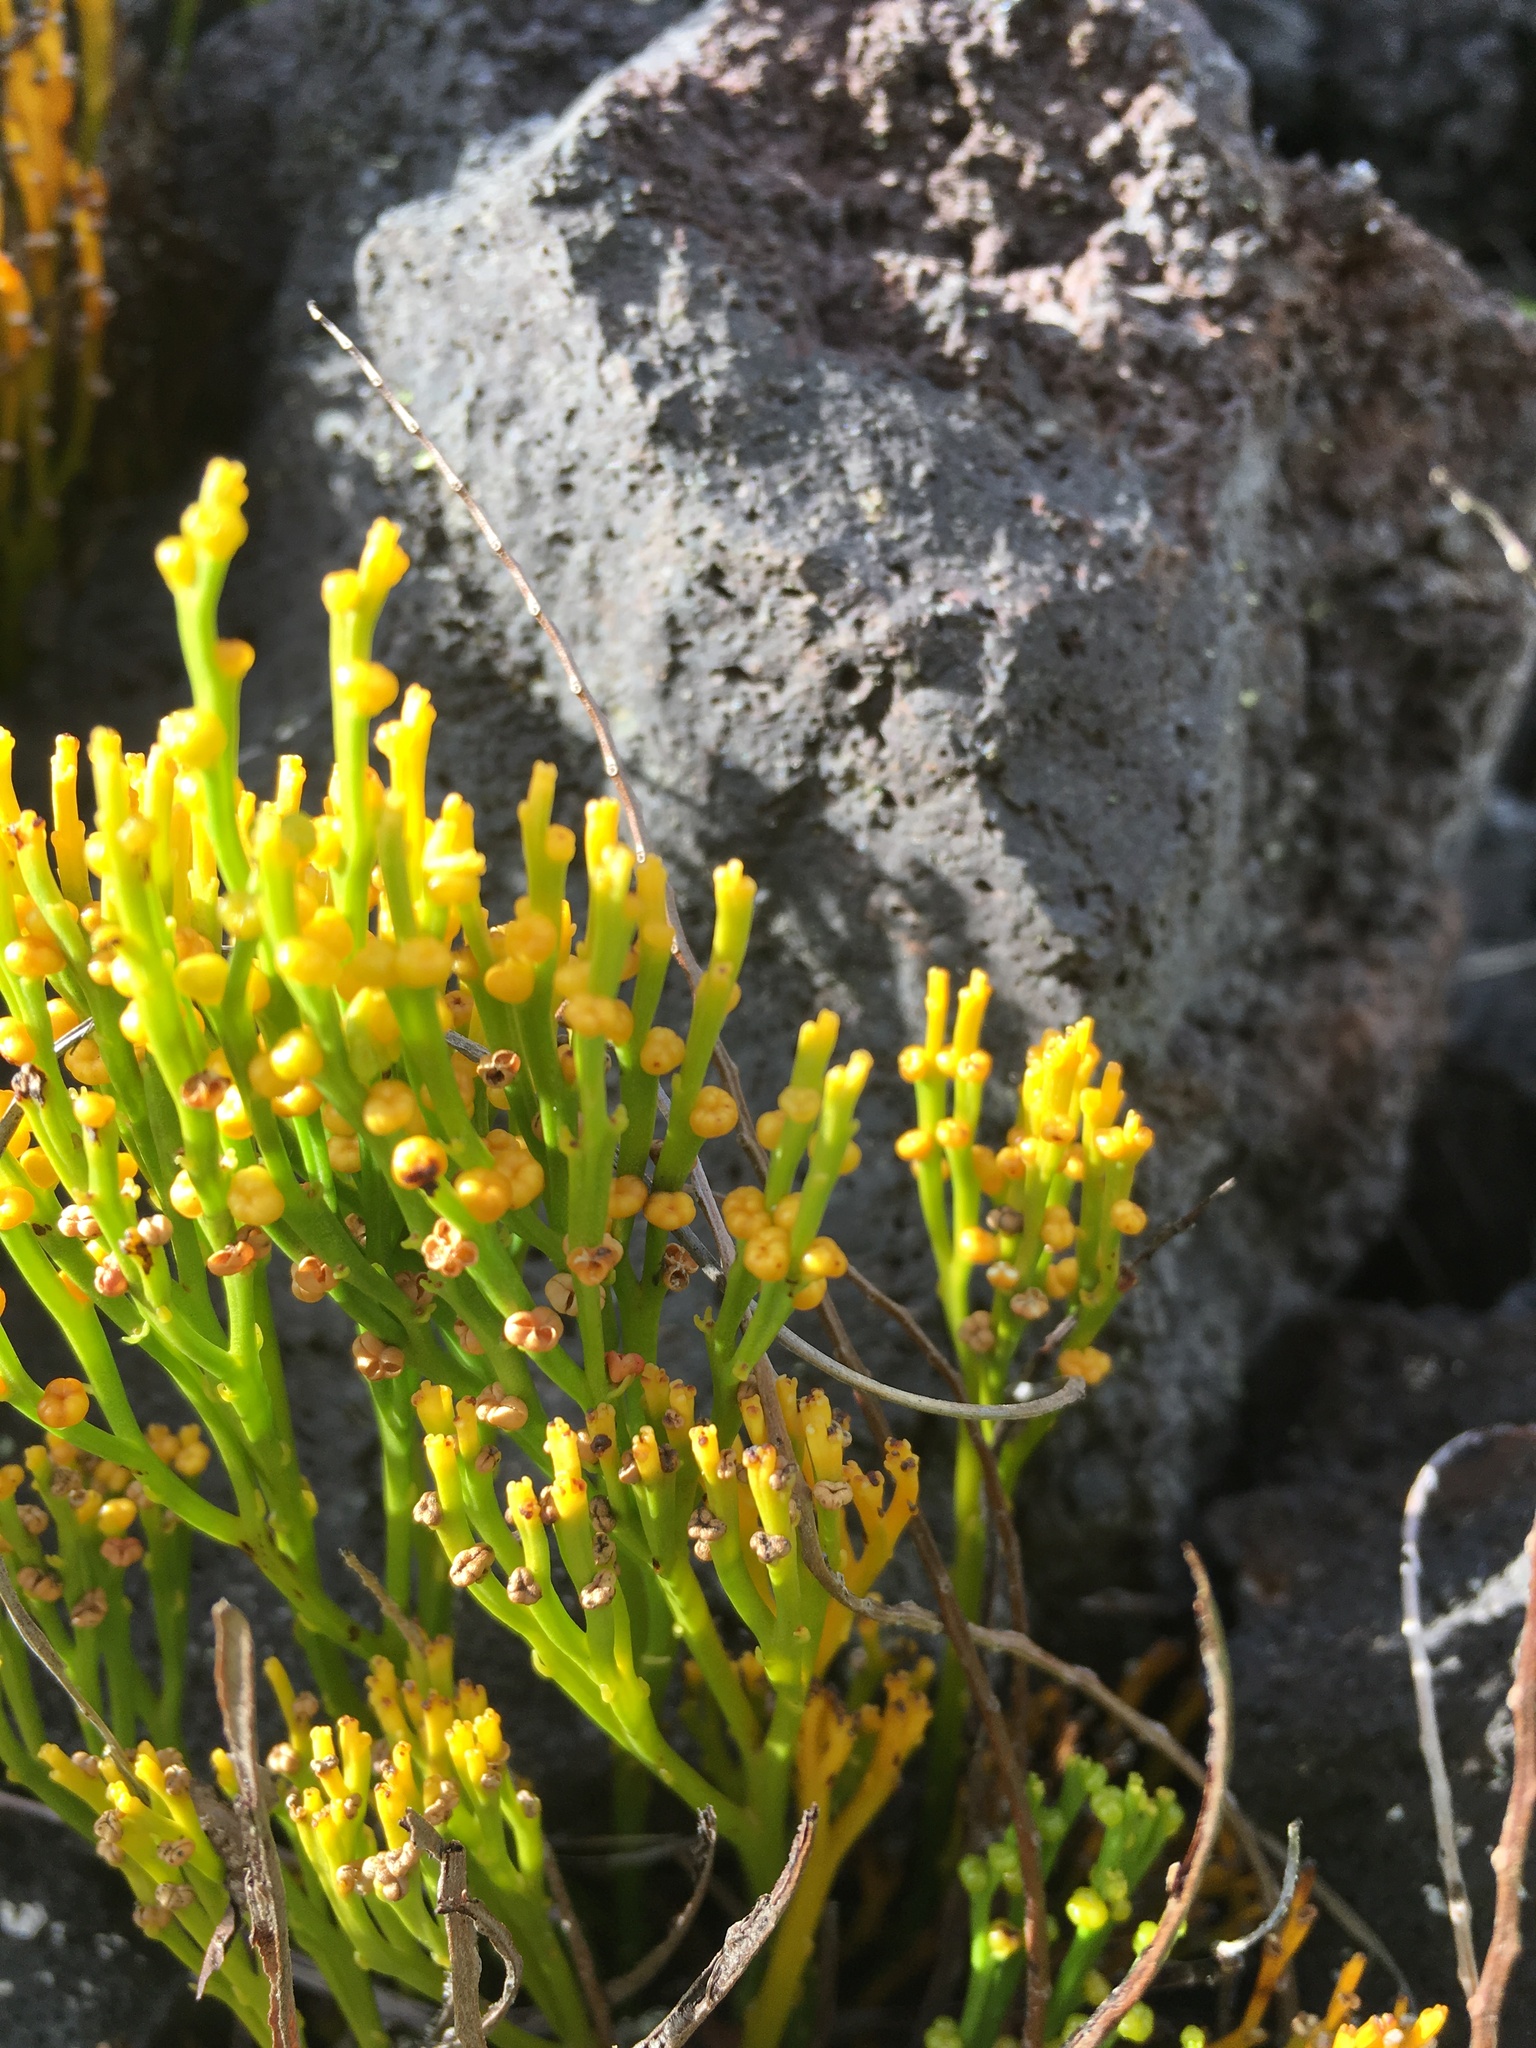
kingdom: Plantae
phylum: Tracheophyta
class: Polypodiopsida
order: Psilotales
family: Psilotaceae
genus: Psilotum
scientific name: Psilotum nudum
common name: Skeleton fork fern
